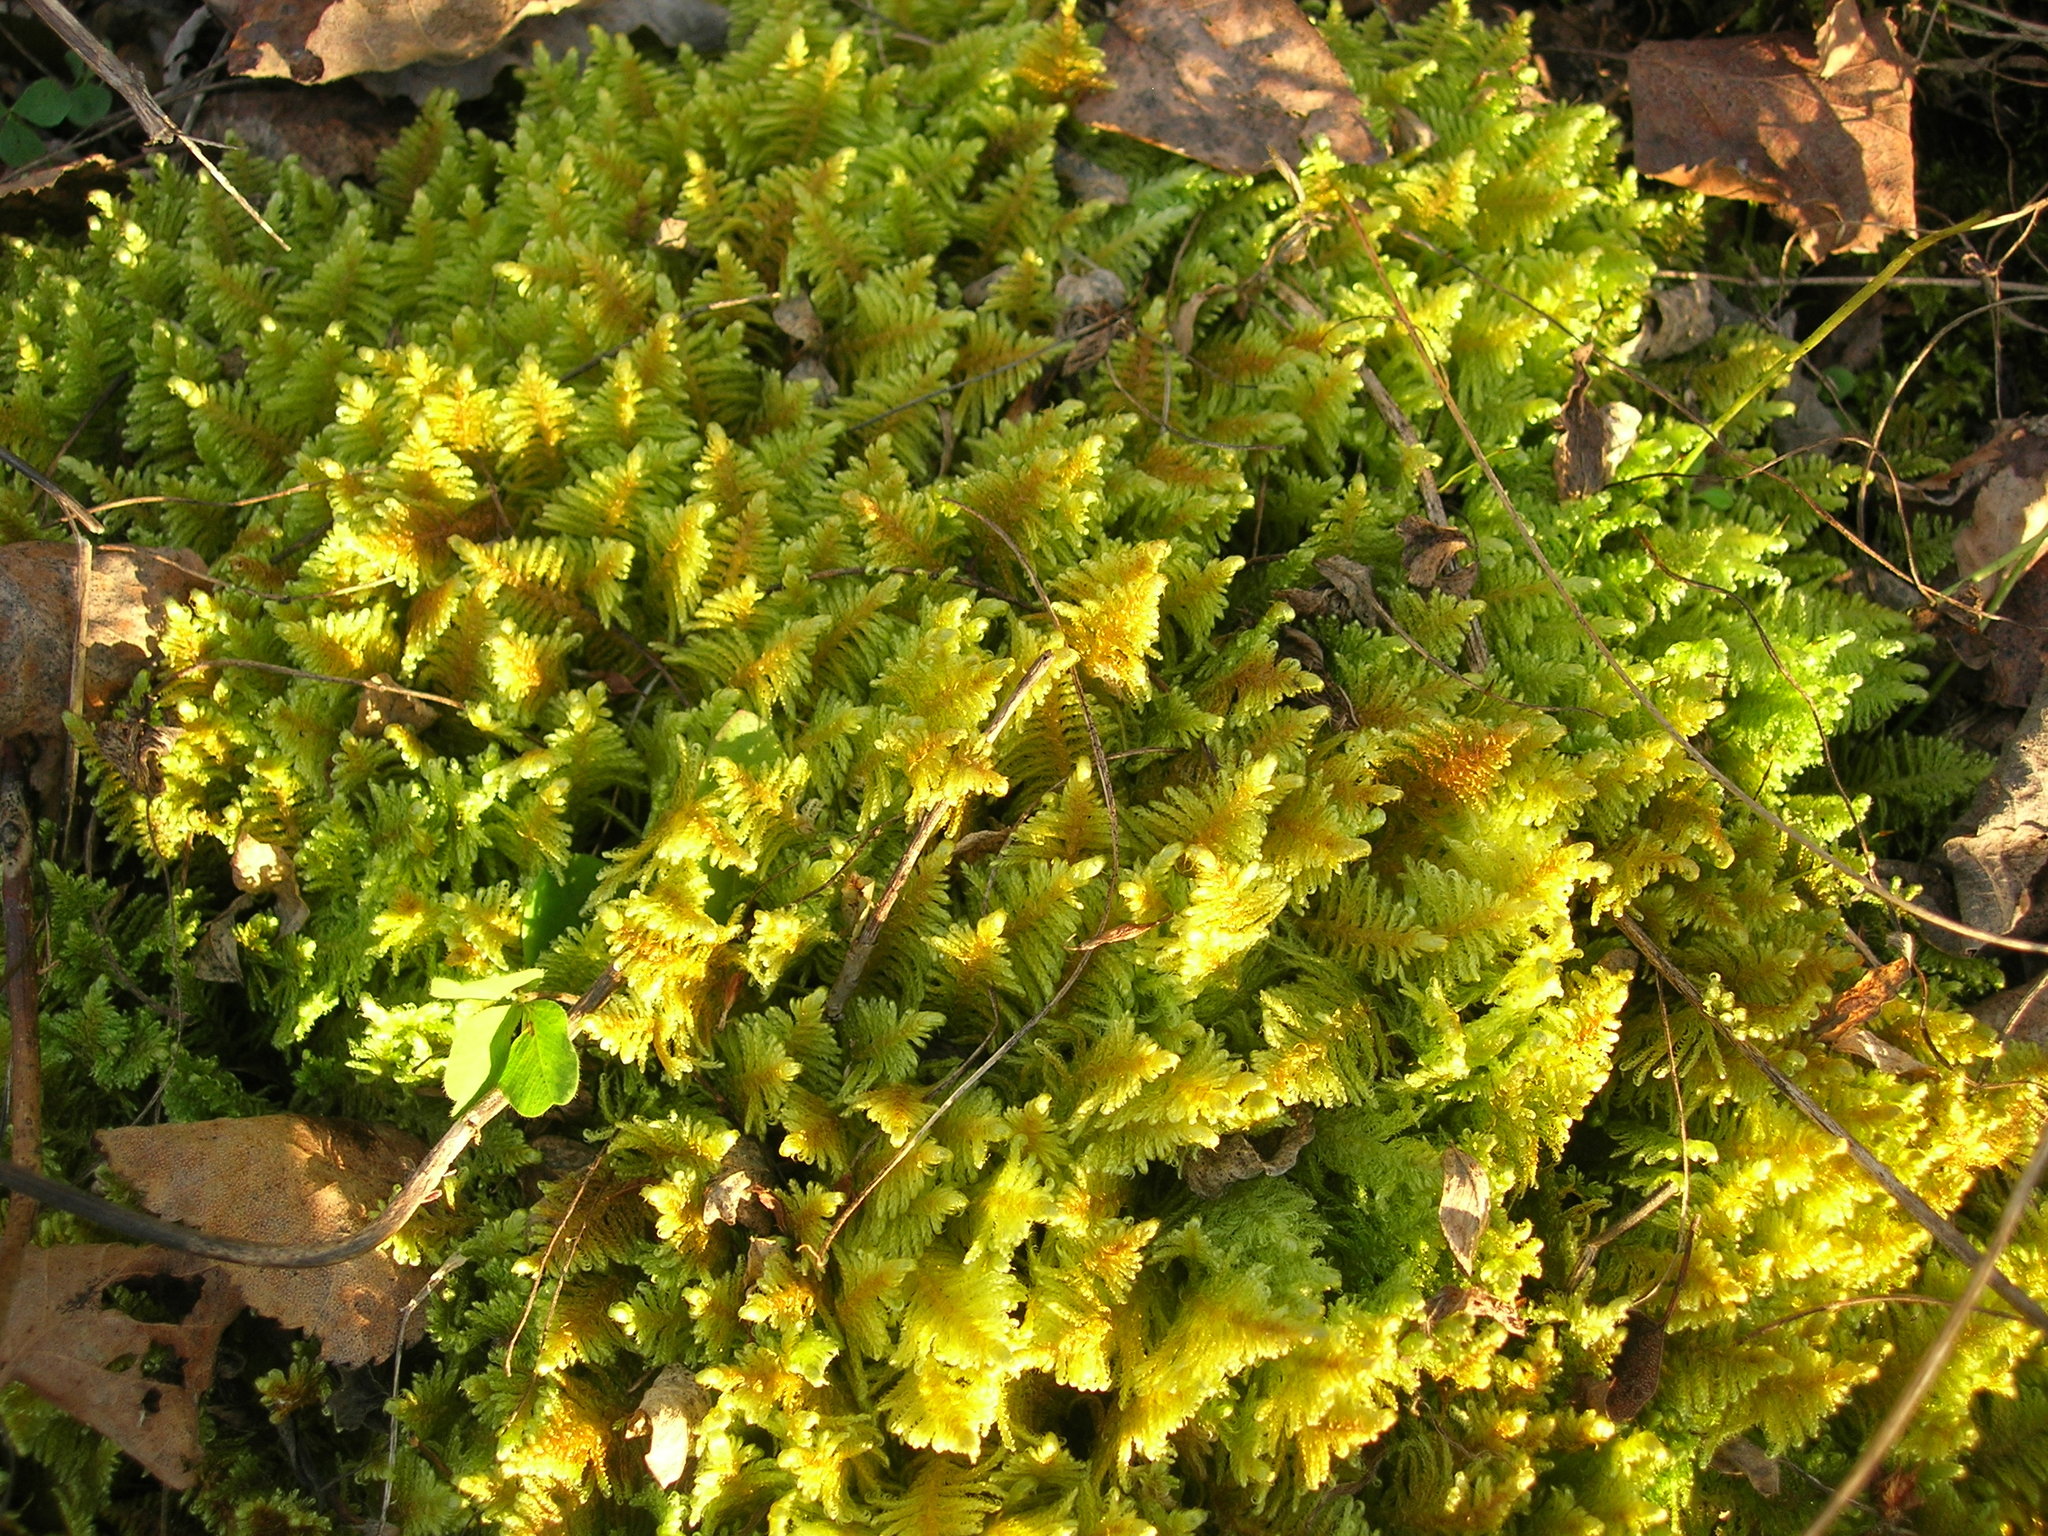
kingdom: Plantae
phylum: Bryophyta
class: Bryopsida
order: Hypnales
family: Pylaisiaceae
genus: Ptilium
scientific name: Ptilium crista-castrensis
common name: Knight's plume moss
